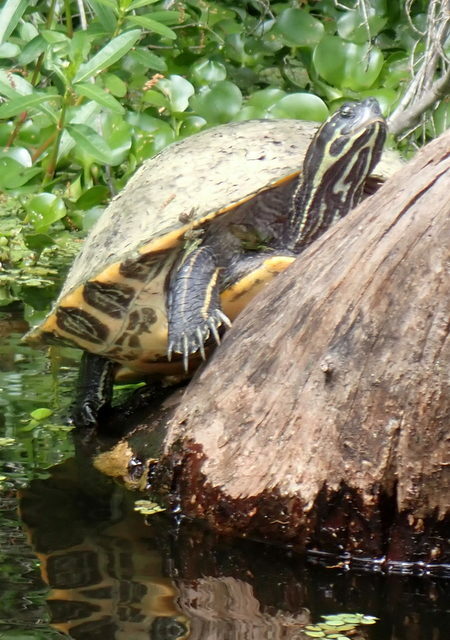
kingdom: Animalia
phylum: Chordata
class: Testudines
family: Emydidae
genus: Pseudemys
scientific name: Pseudemys concinna
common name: Eastern river cooter
